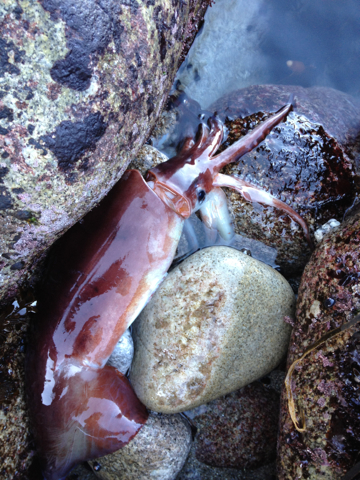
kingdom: Animalia
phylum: Mollusca
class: Cephalopoda
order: Oegopsida
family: Ommastrephidae
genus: Dosidicus
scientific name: Dosidicus gigas
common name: Humboldt squid
